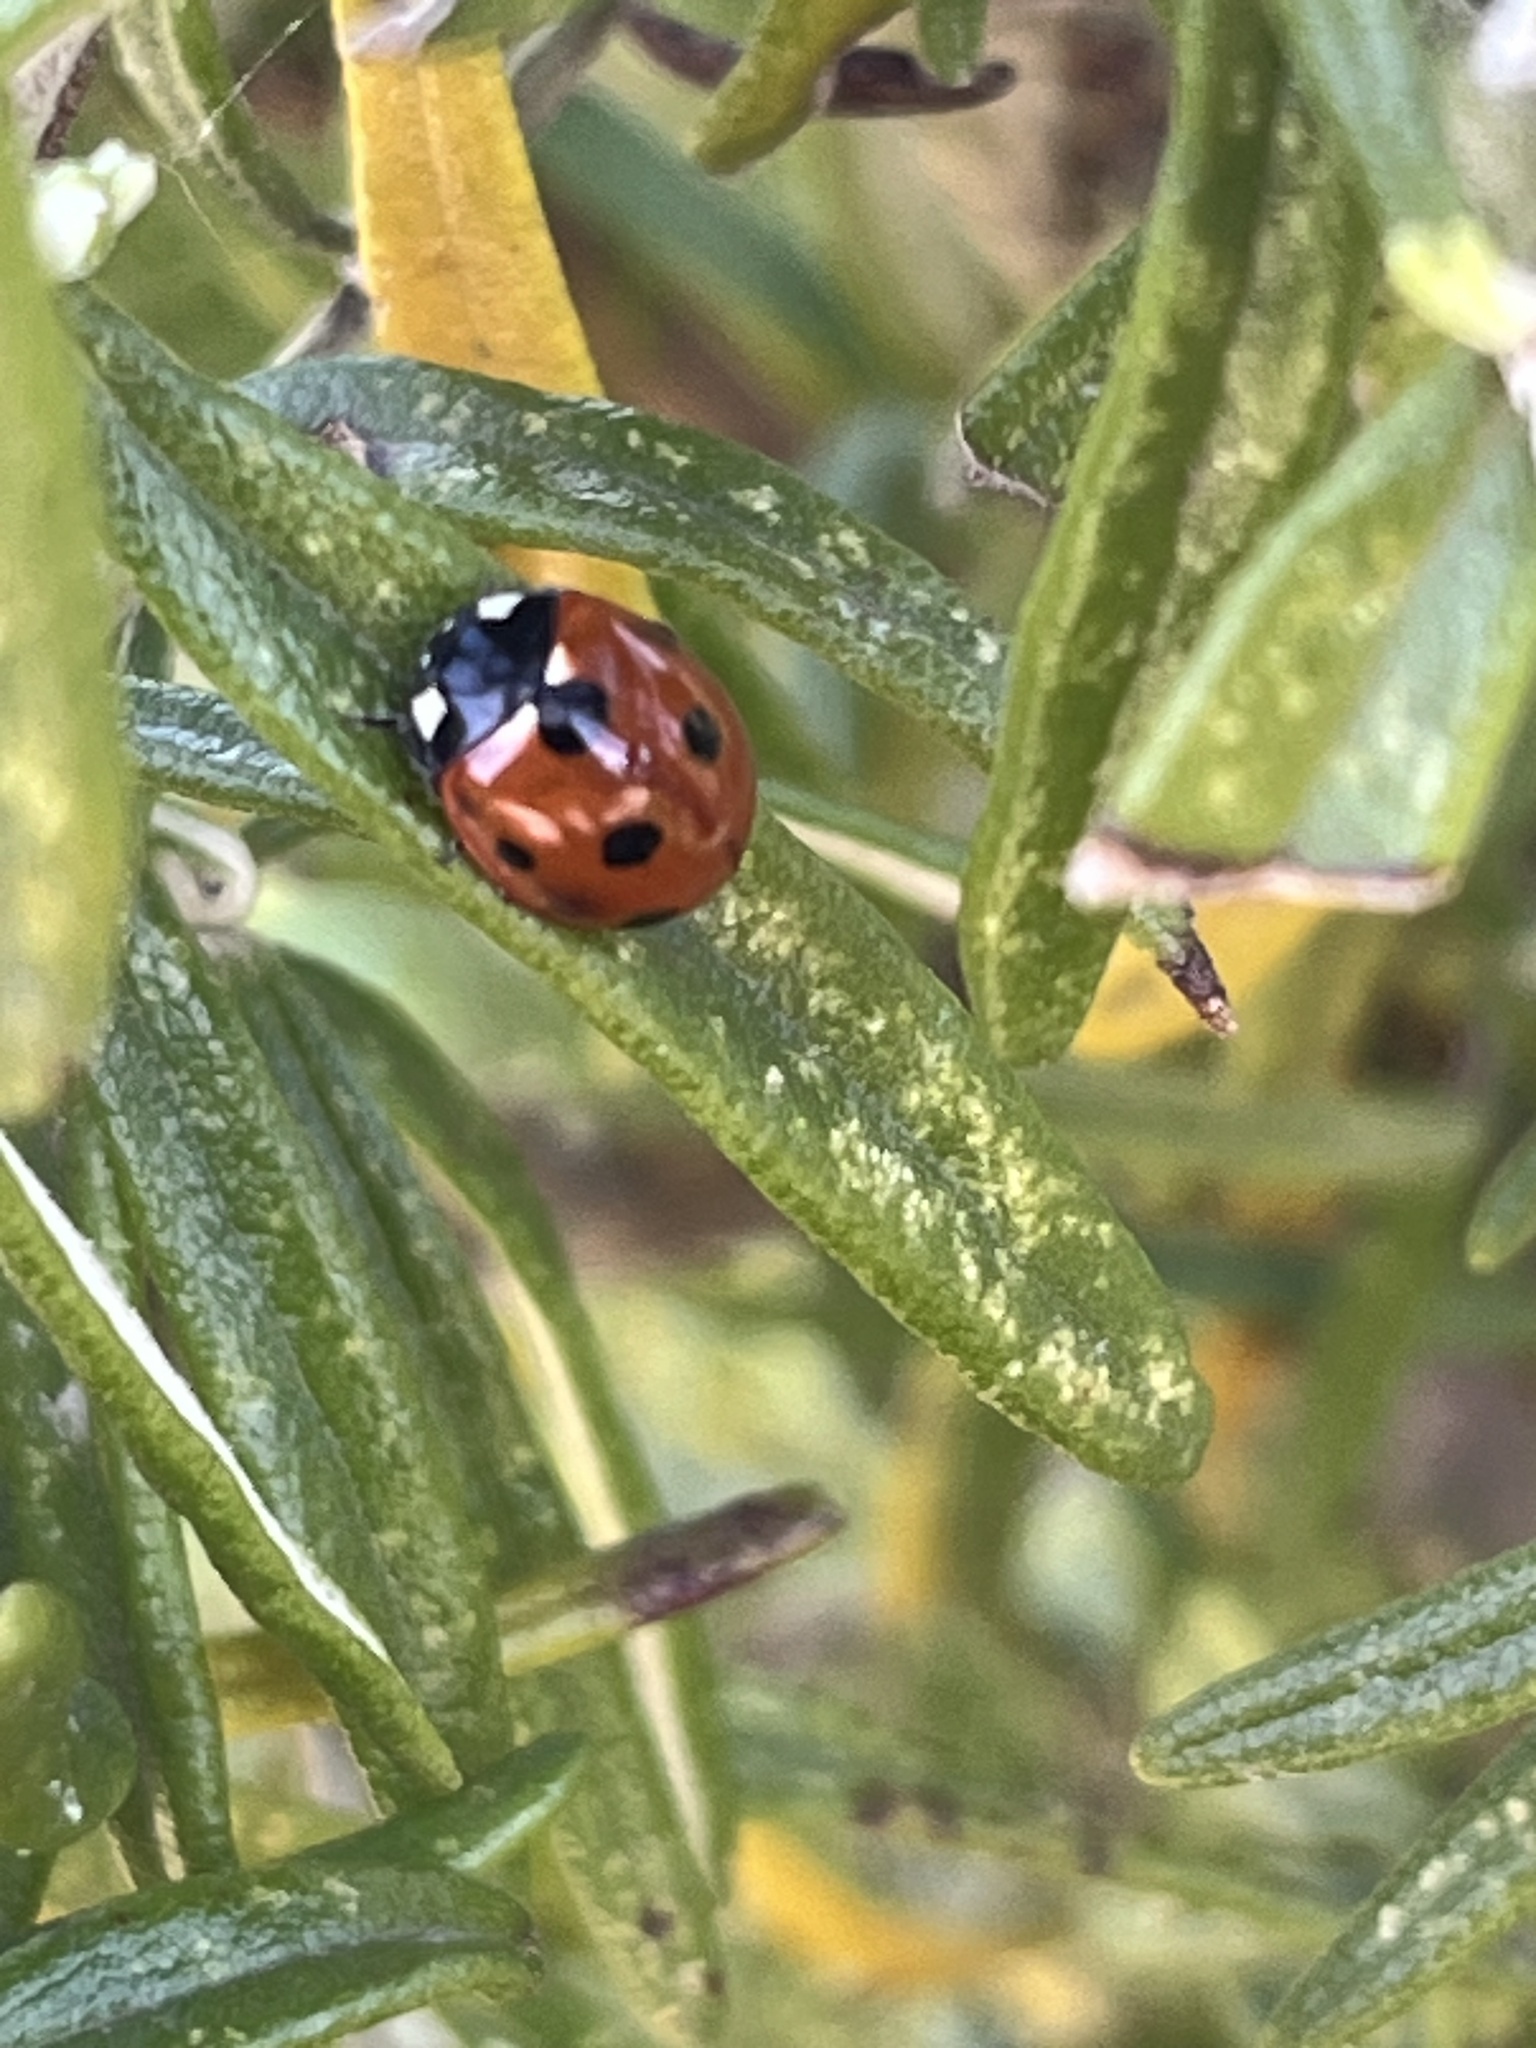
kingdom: Animalia
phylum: Arthropoda
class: Insecta
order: Coleoptera
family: Coccinellidae
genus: Coccinella
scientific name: Coccinella septempunctata
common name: Sevenspotted lady beetle
